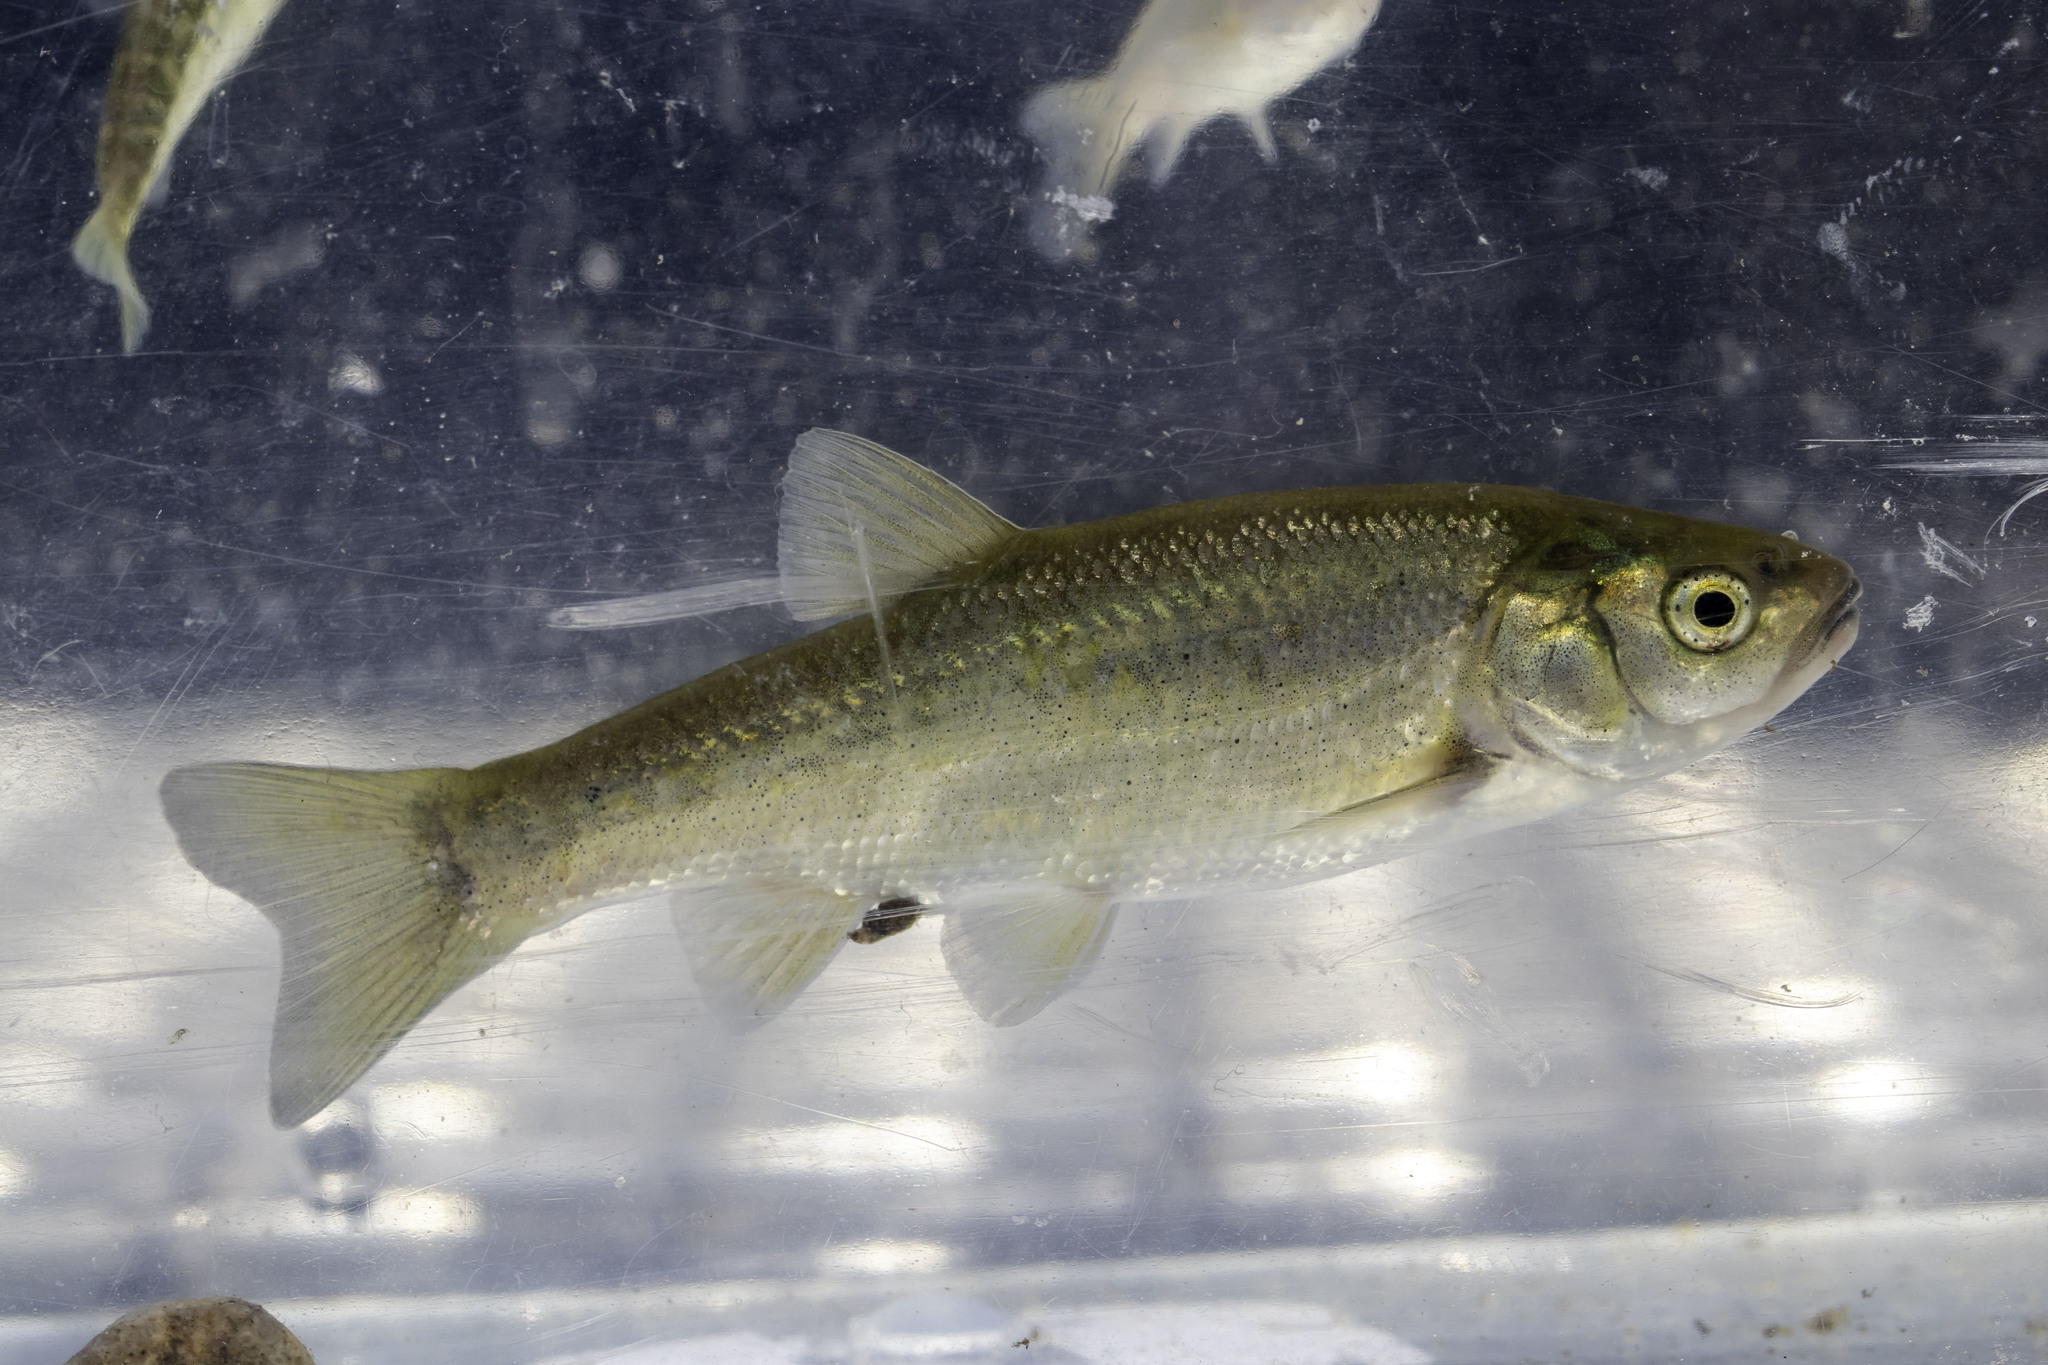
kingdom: Animalia
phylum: Chordata
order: Cypriniformes
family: Cyprinidae
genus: Gila
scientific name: Gila orcuttii
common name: Arroyo chub
